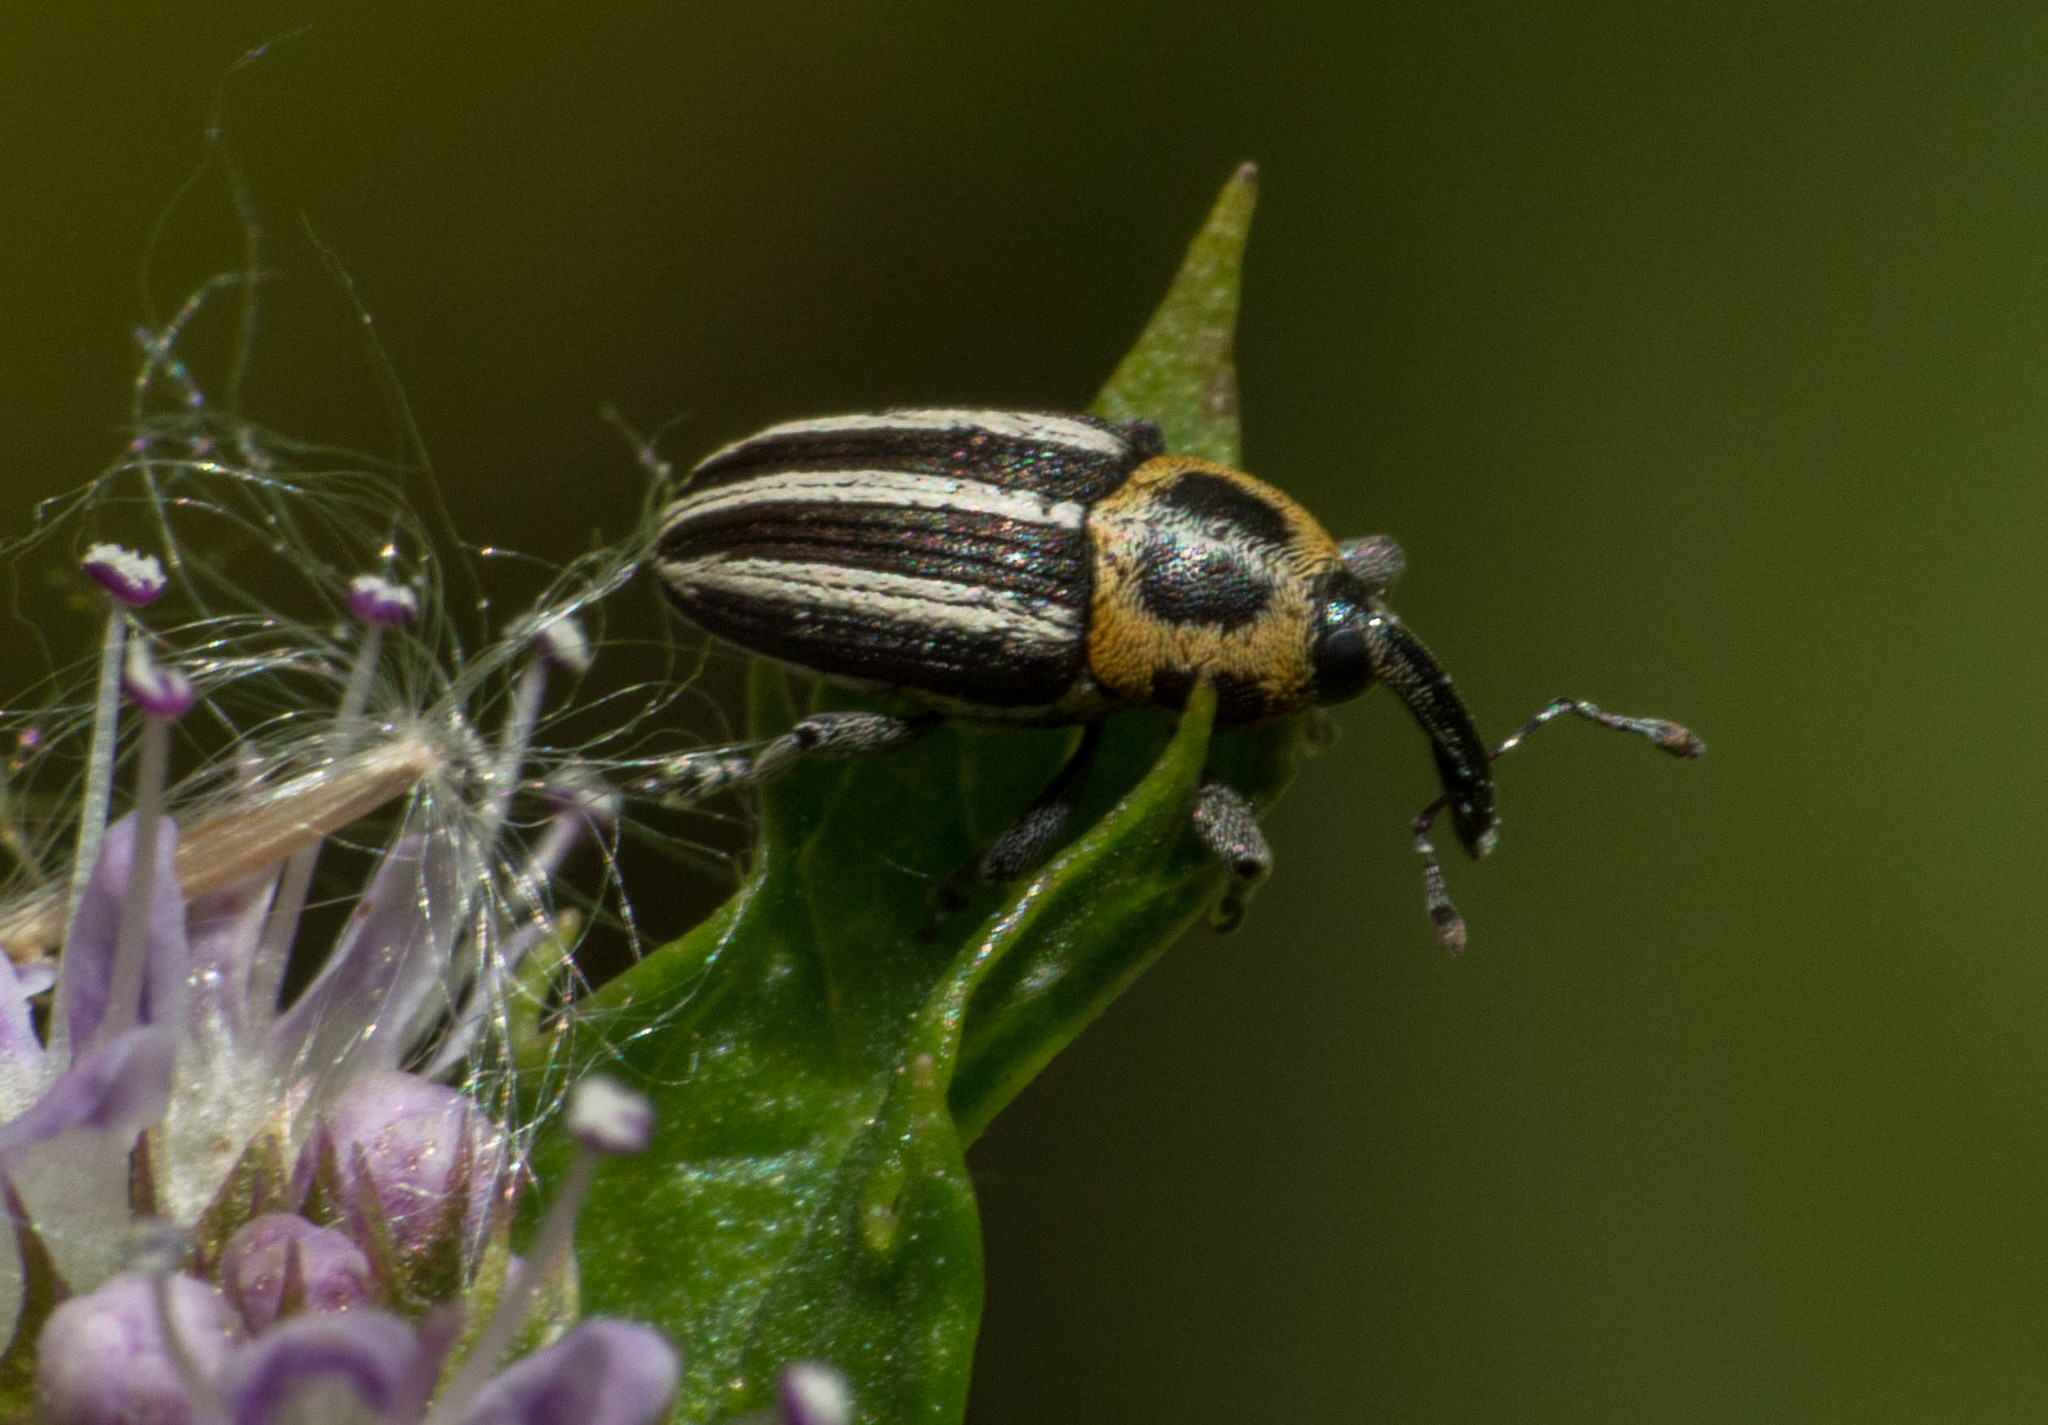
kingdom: Animalia
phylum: Arthropoda
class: Insecta
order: Coleoptera
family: Curculionidae
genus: Nicentrus
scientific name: Nicentrus circumcinctus
